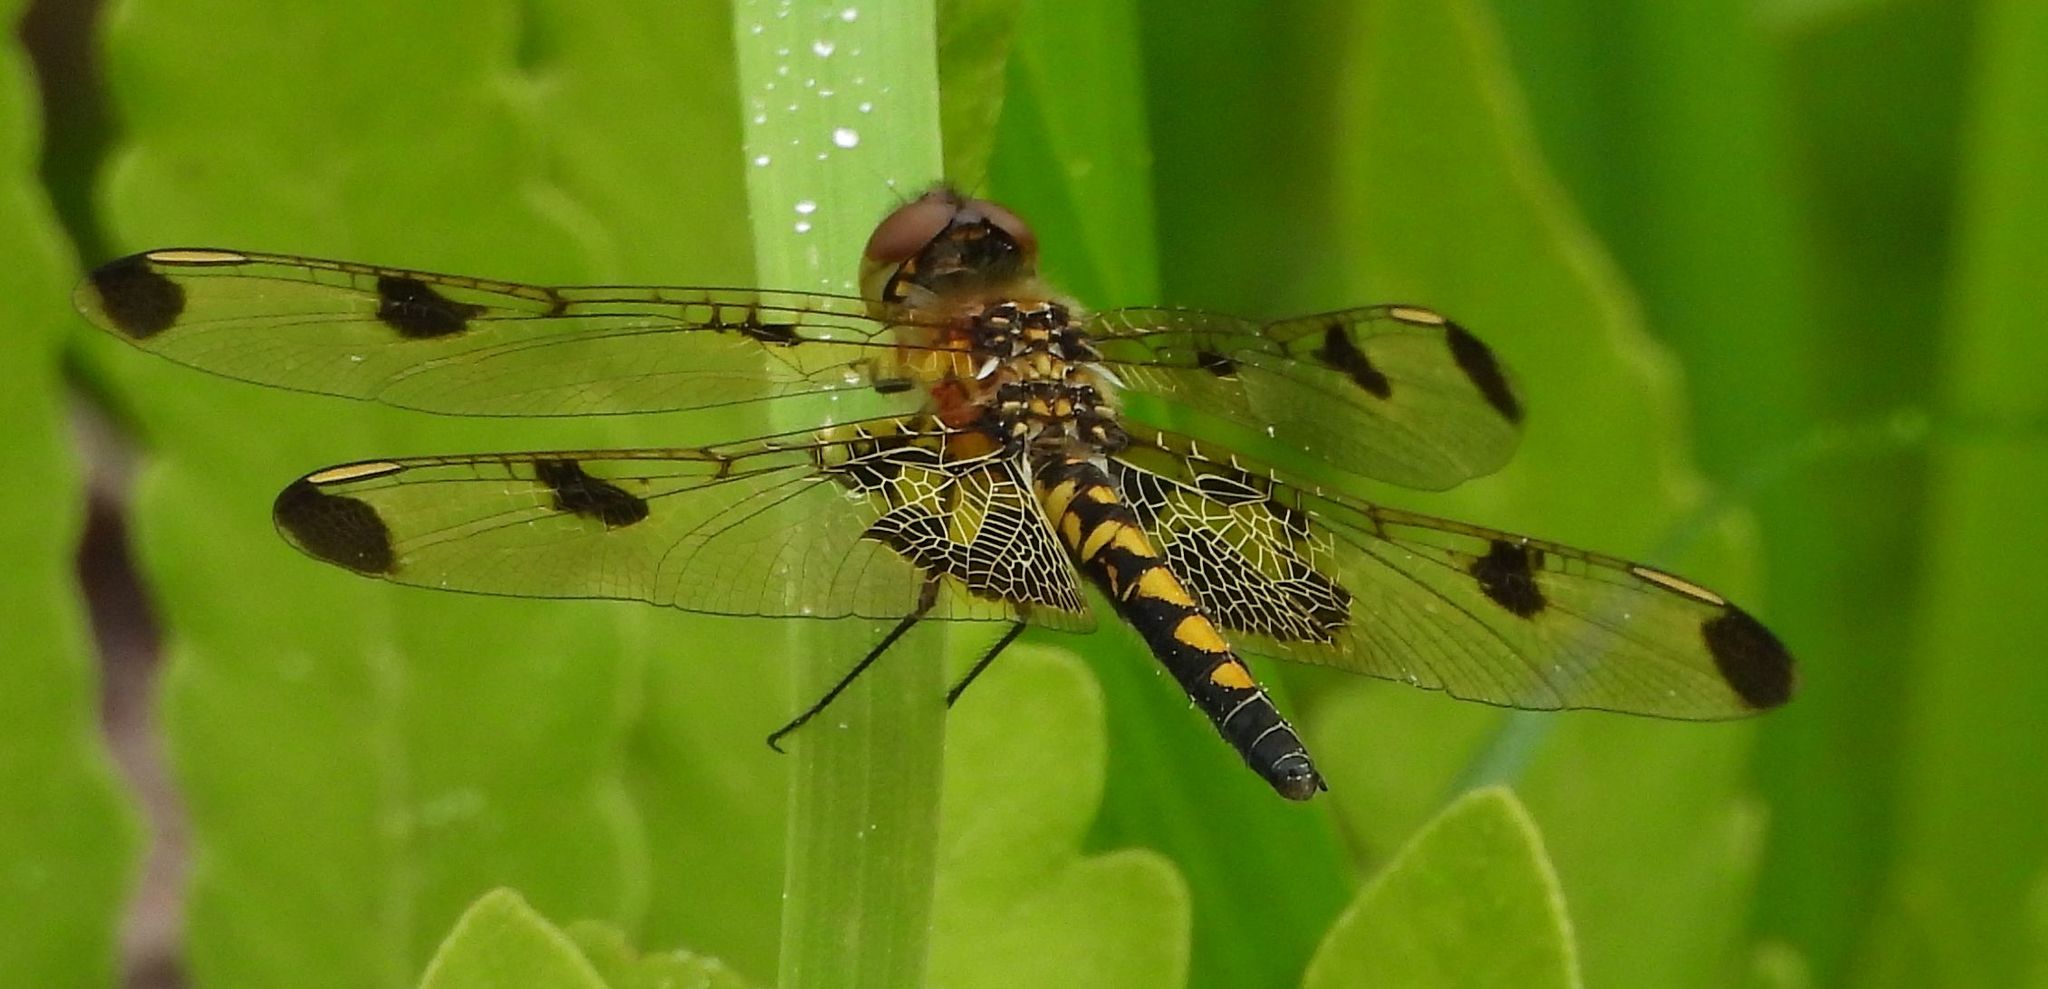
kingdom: Animalia
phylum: Arthropoda
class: Insecta
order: Odonata
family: Libellulidae
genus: Celithemis
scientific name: Celithemis elisa
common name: Calico pennant
